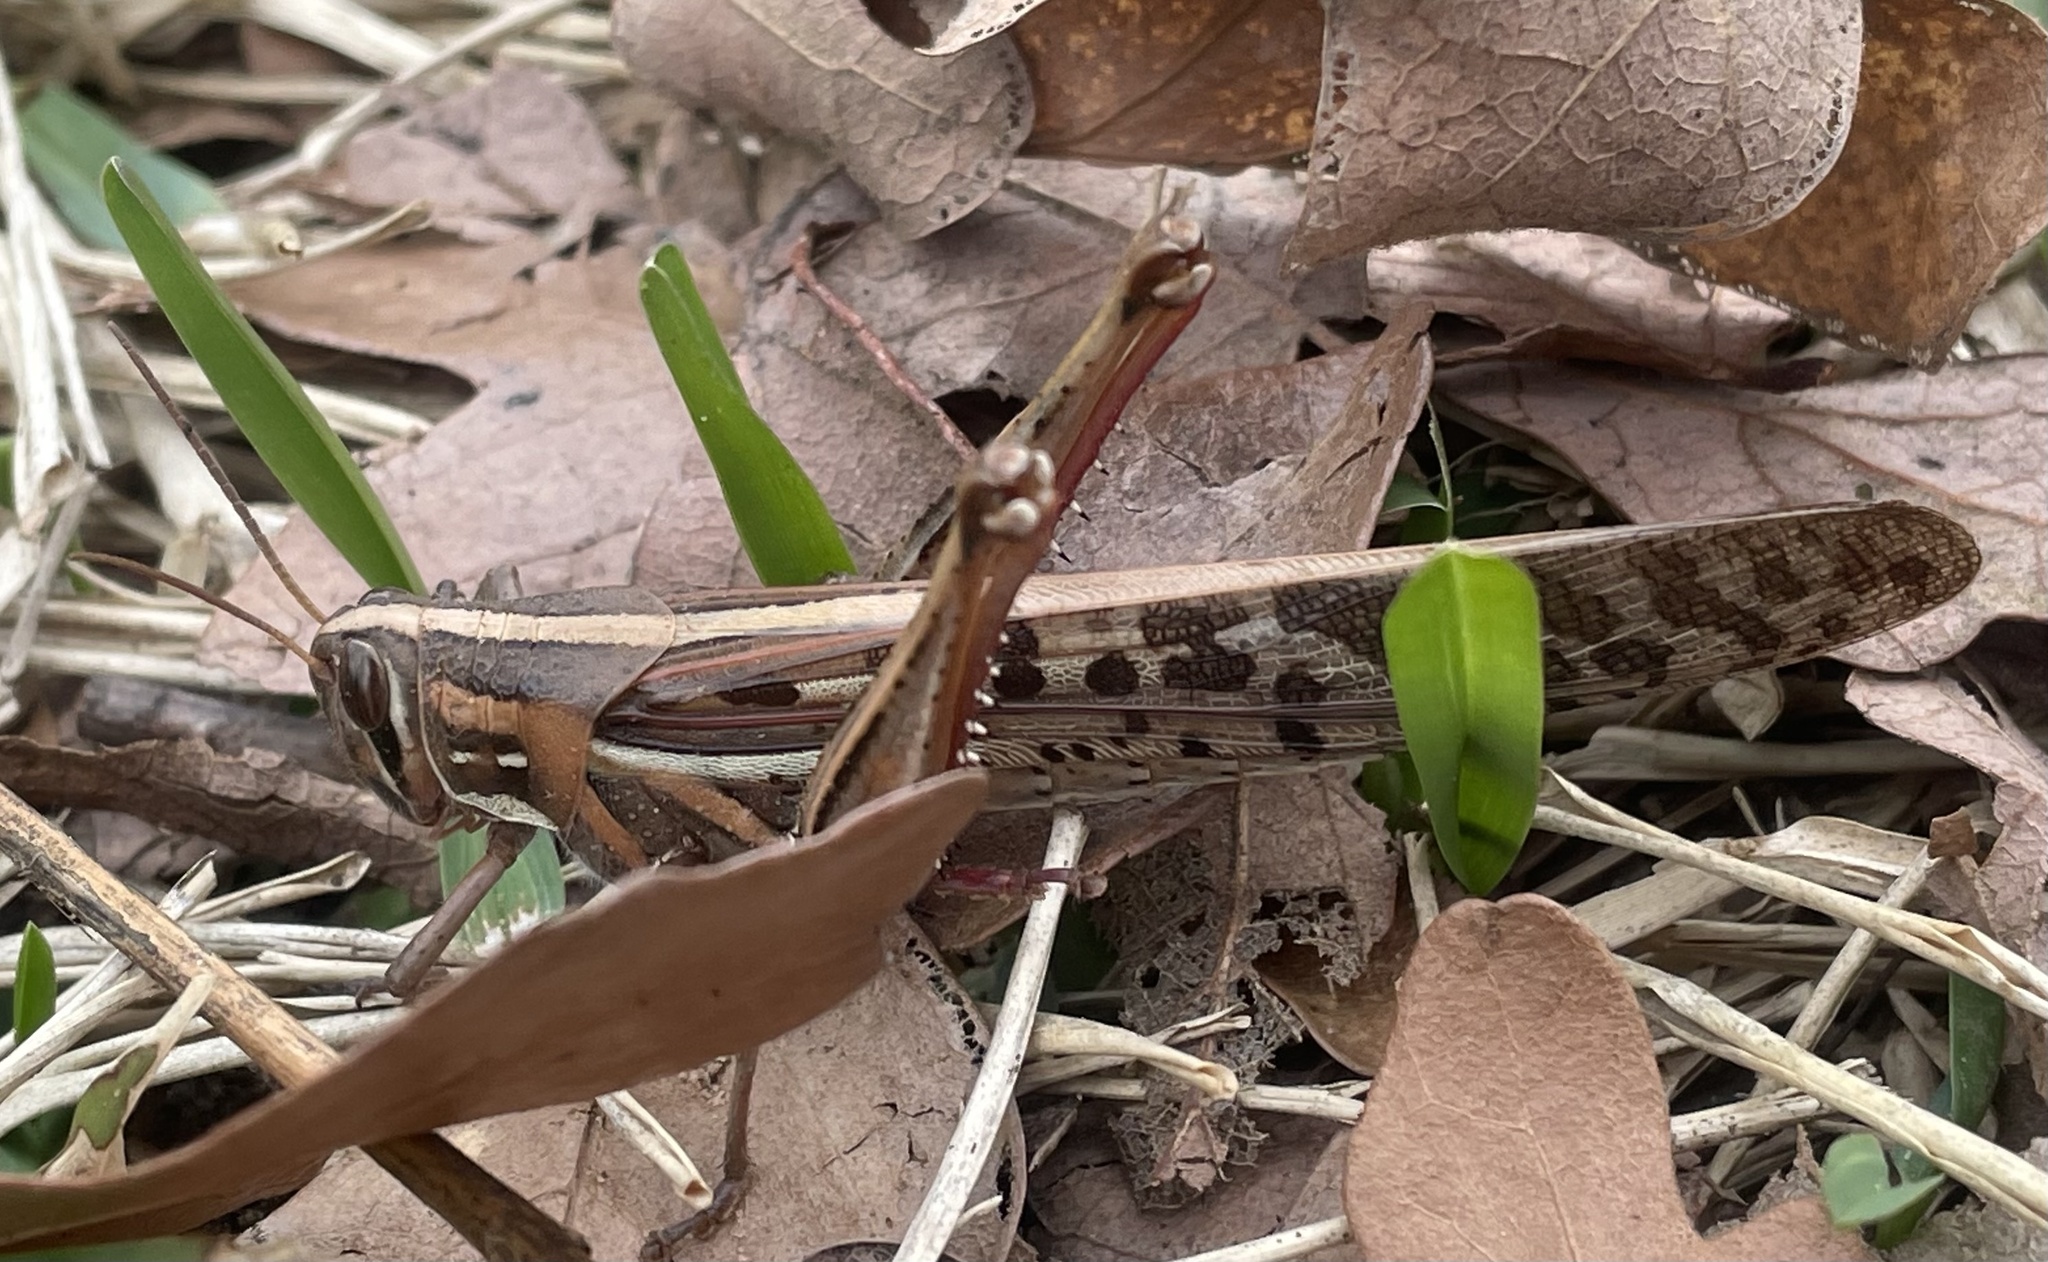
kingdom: Animalia
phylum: Arthropoda
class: Insecta
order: Orthoptera
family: Acrididae
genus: Schistocerca
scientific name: Schistocerca americana
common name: American bird locust
